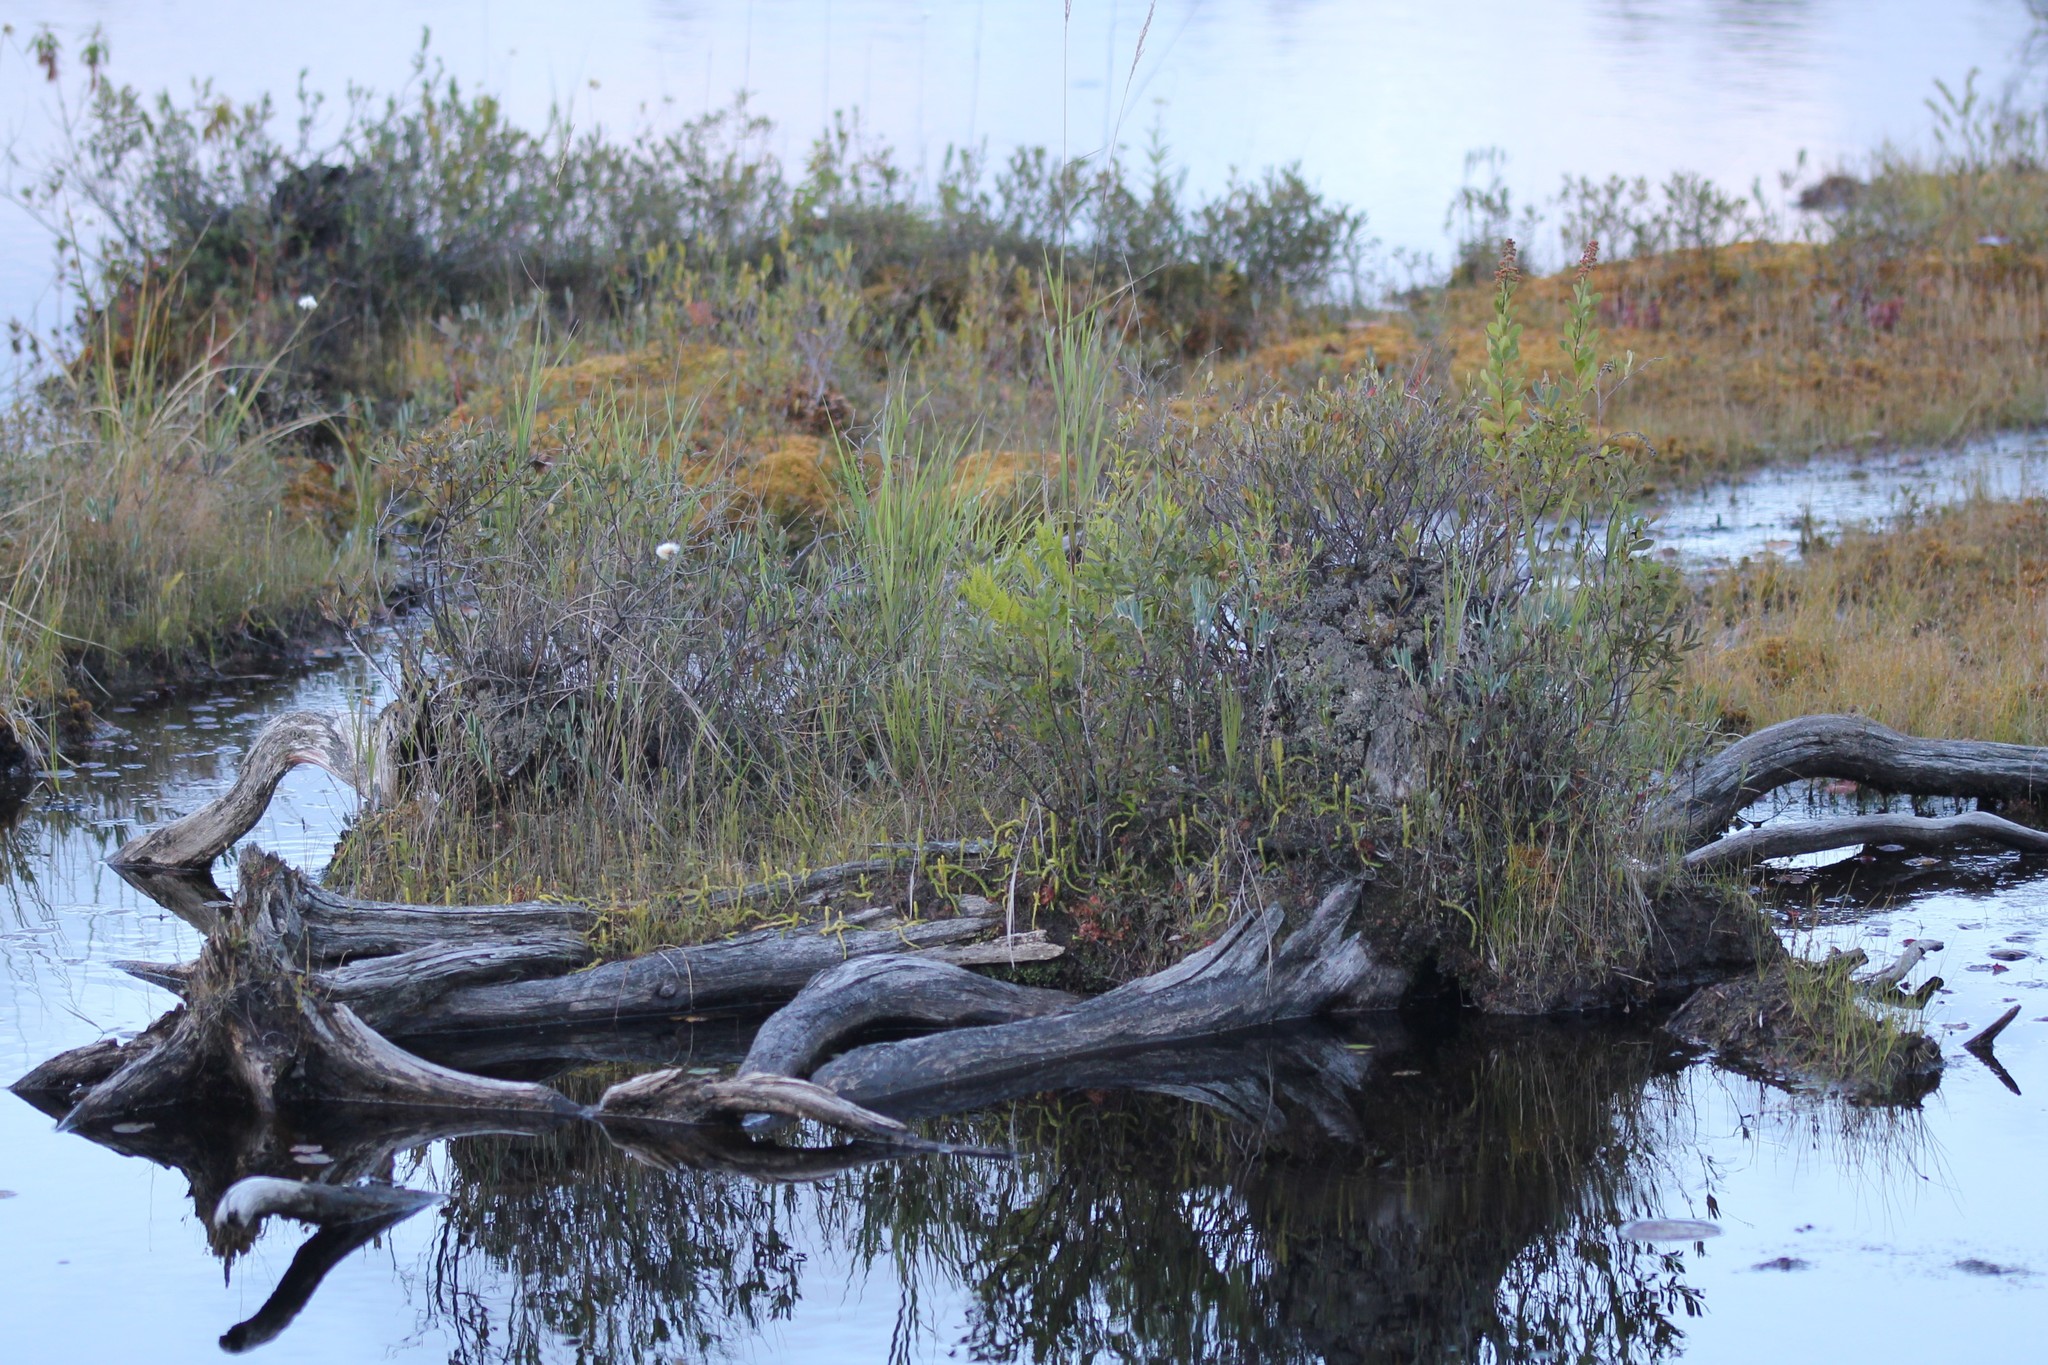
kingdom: Plantae
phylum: Tracheophyta
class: Lycopodiopsida
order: Lycopodiales
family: Lycopodiaceae
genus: Lycopodiella
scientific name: Lycopodiella inundata
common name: Marsh clubmoss
